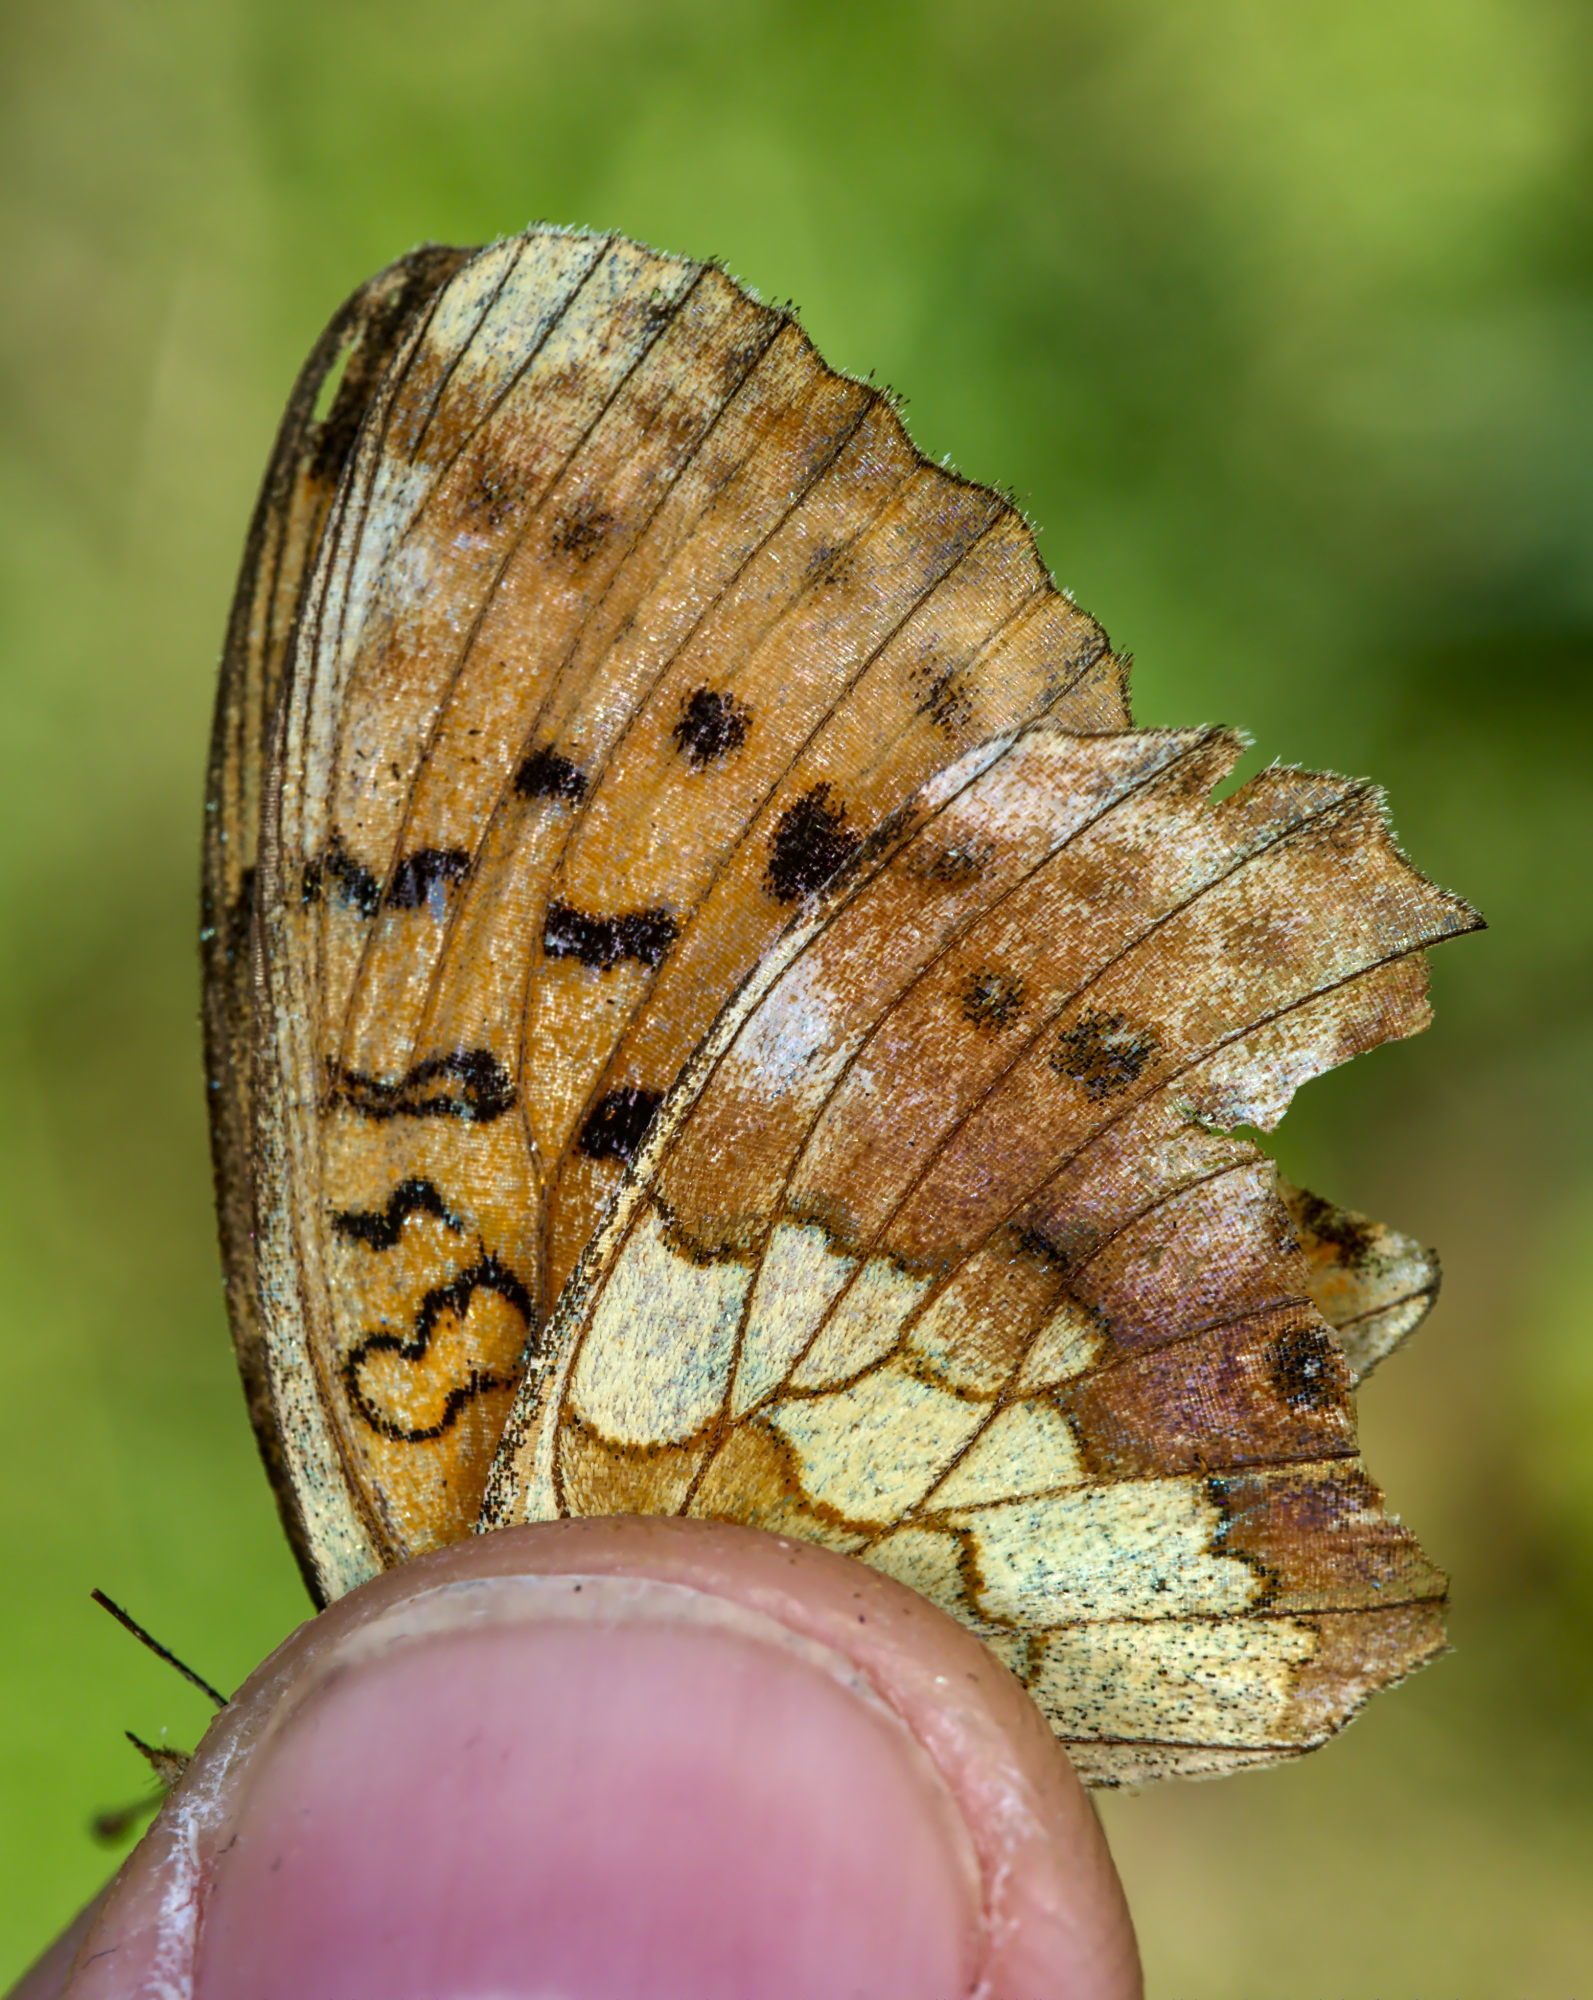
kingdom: Animalia
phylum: Arthropoda
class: Insecta
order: Lepidoptera
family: Nymphalidae
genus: Brenthis
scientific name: Brenthis daphne
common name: Marbled fritillary
